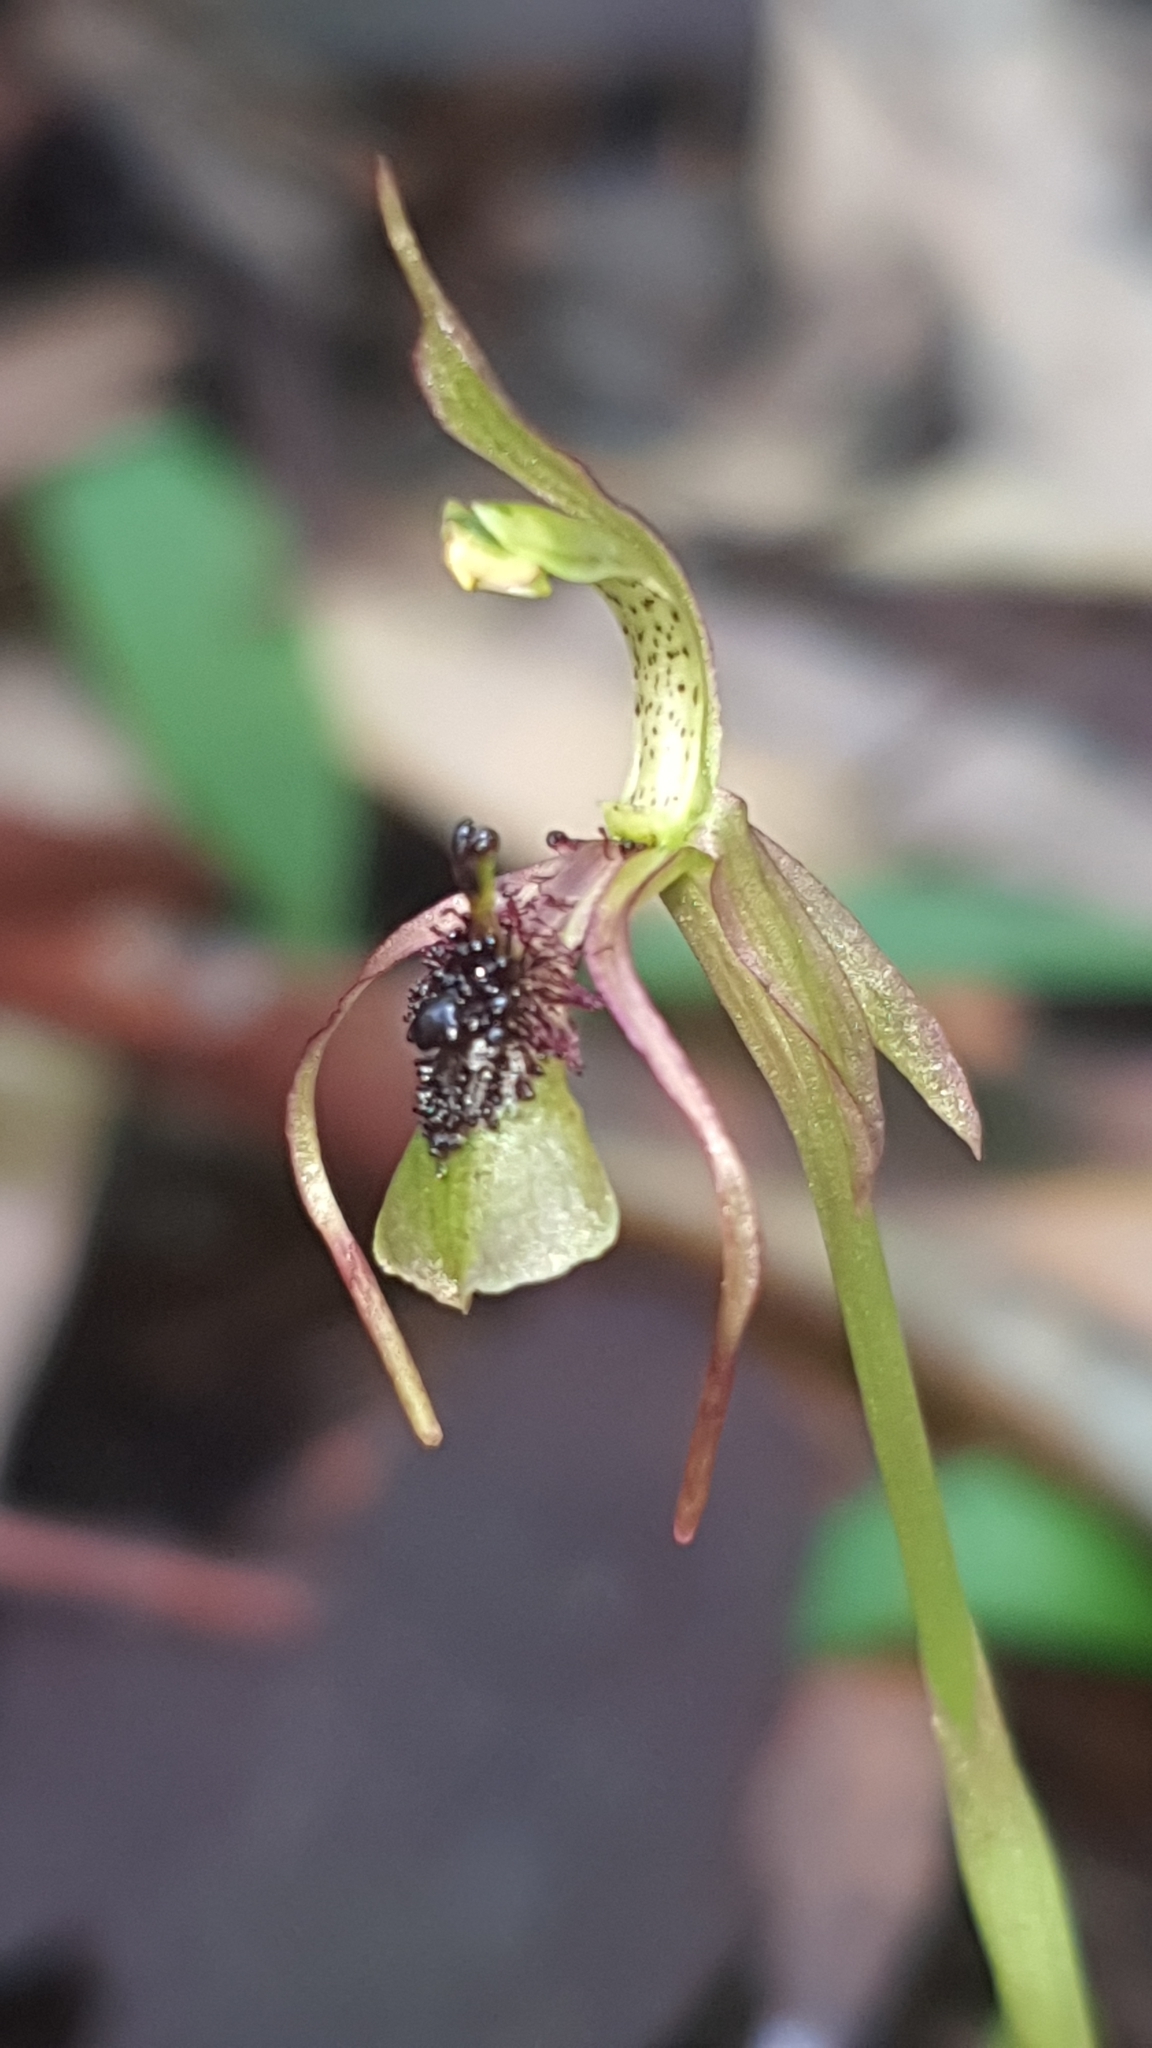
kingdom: Plantae
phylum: Tracheophyta
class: Liliopsida
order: Asparagales
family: Orchidaceae
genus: Chiloglottis
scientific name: Chiloglottis seminuda
